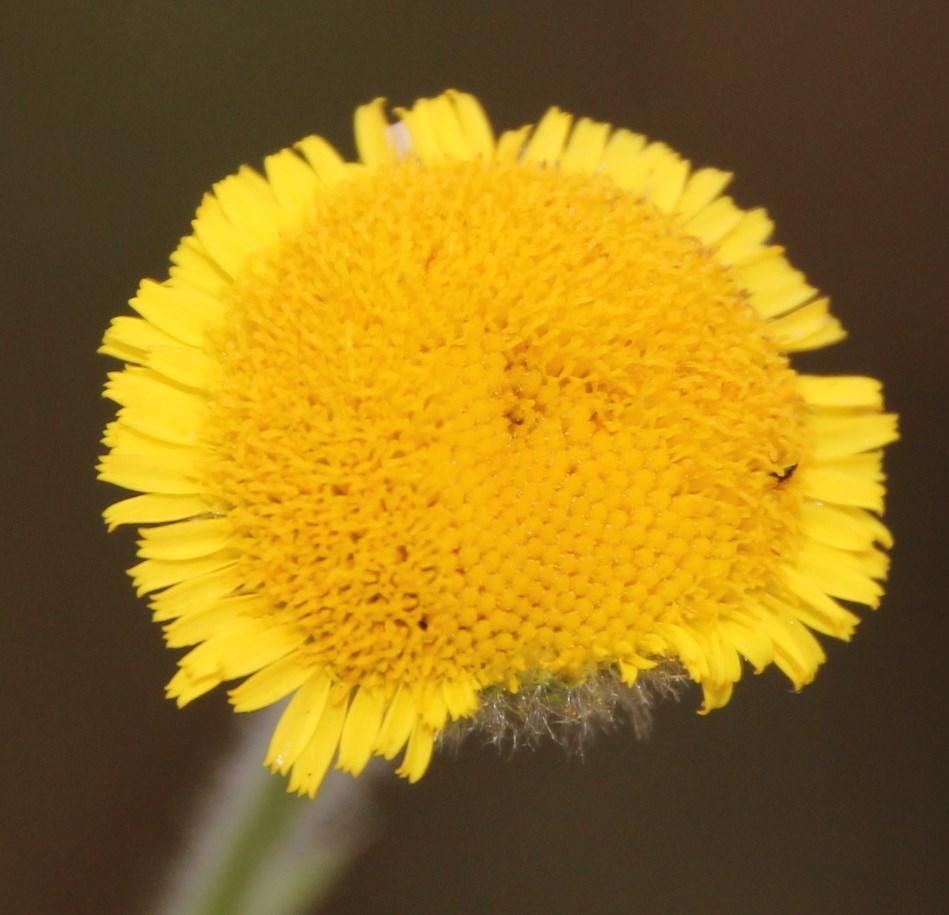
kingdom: Plantae
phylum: Tracheophyta
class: Magnoliopsida
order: Asterales
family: Asteraceae
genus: Pulicaria
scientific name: Pulicaria scabra
